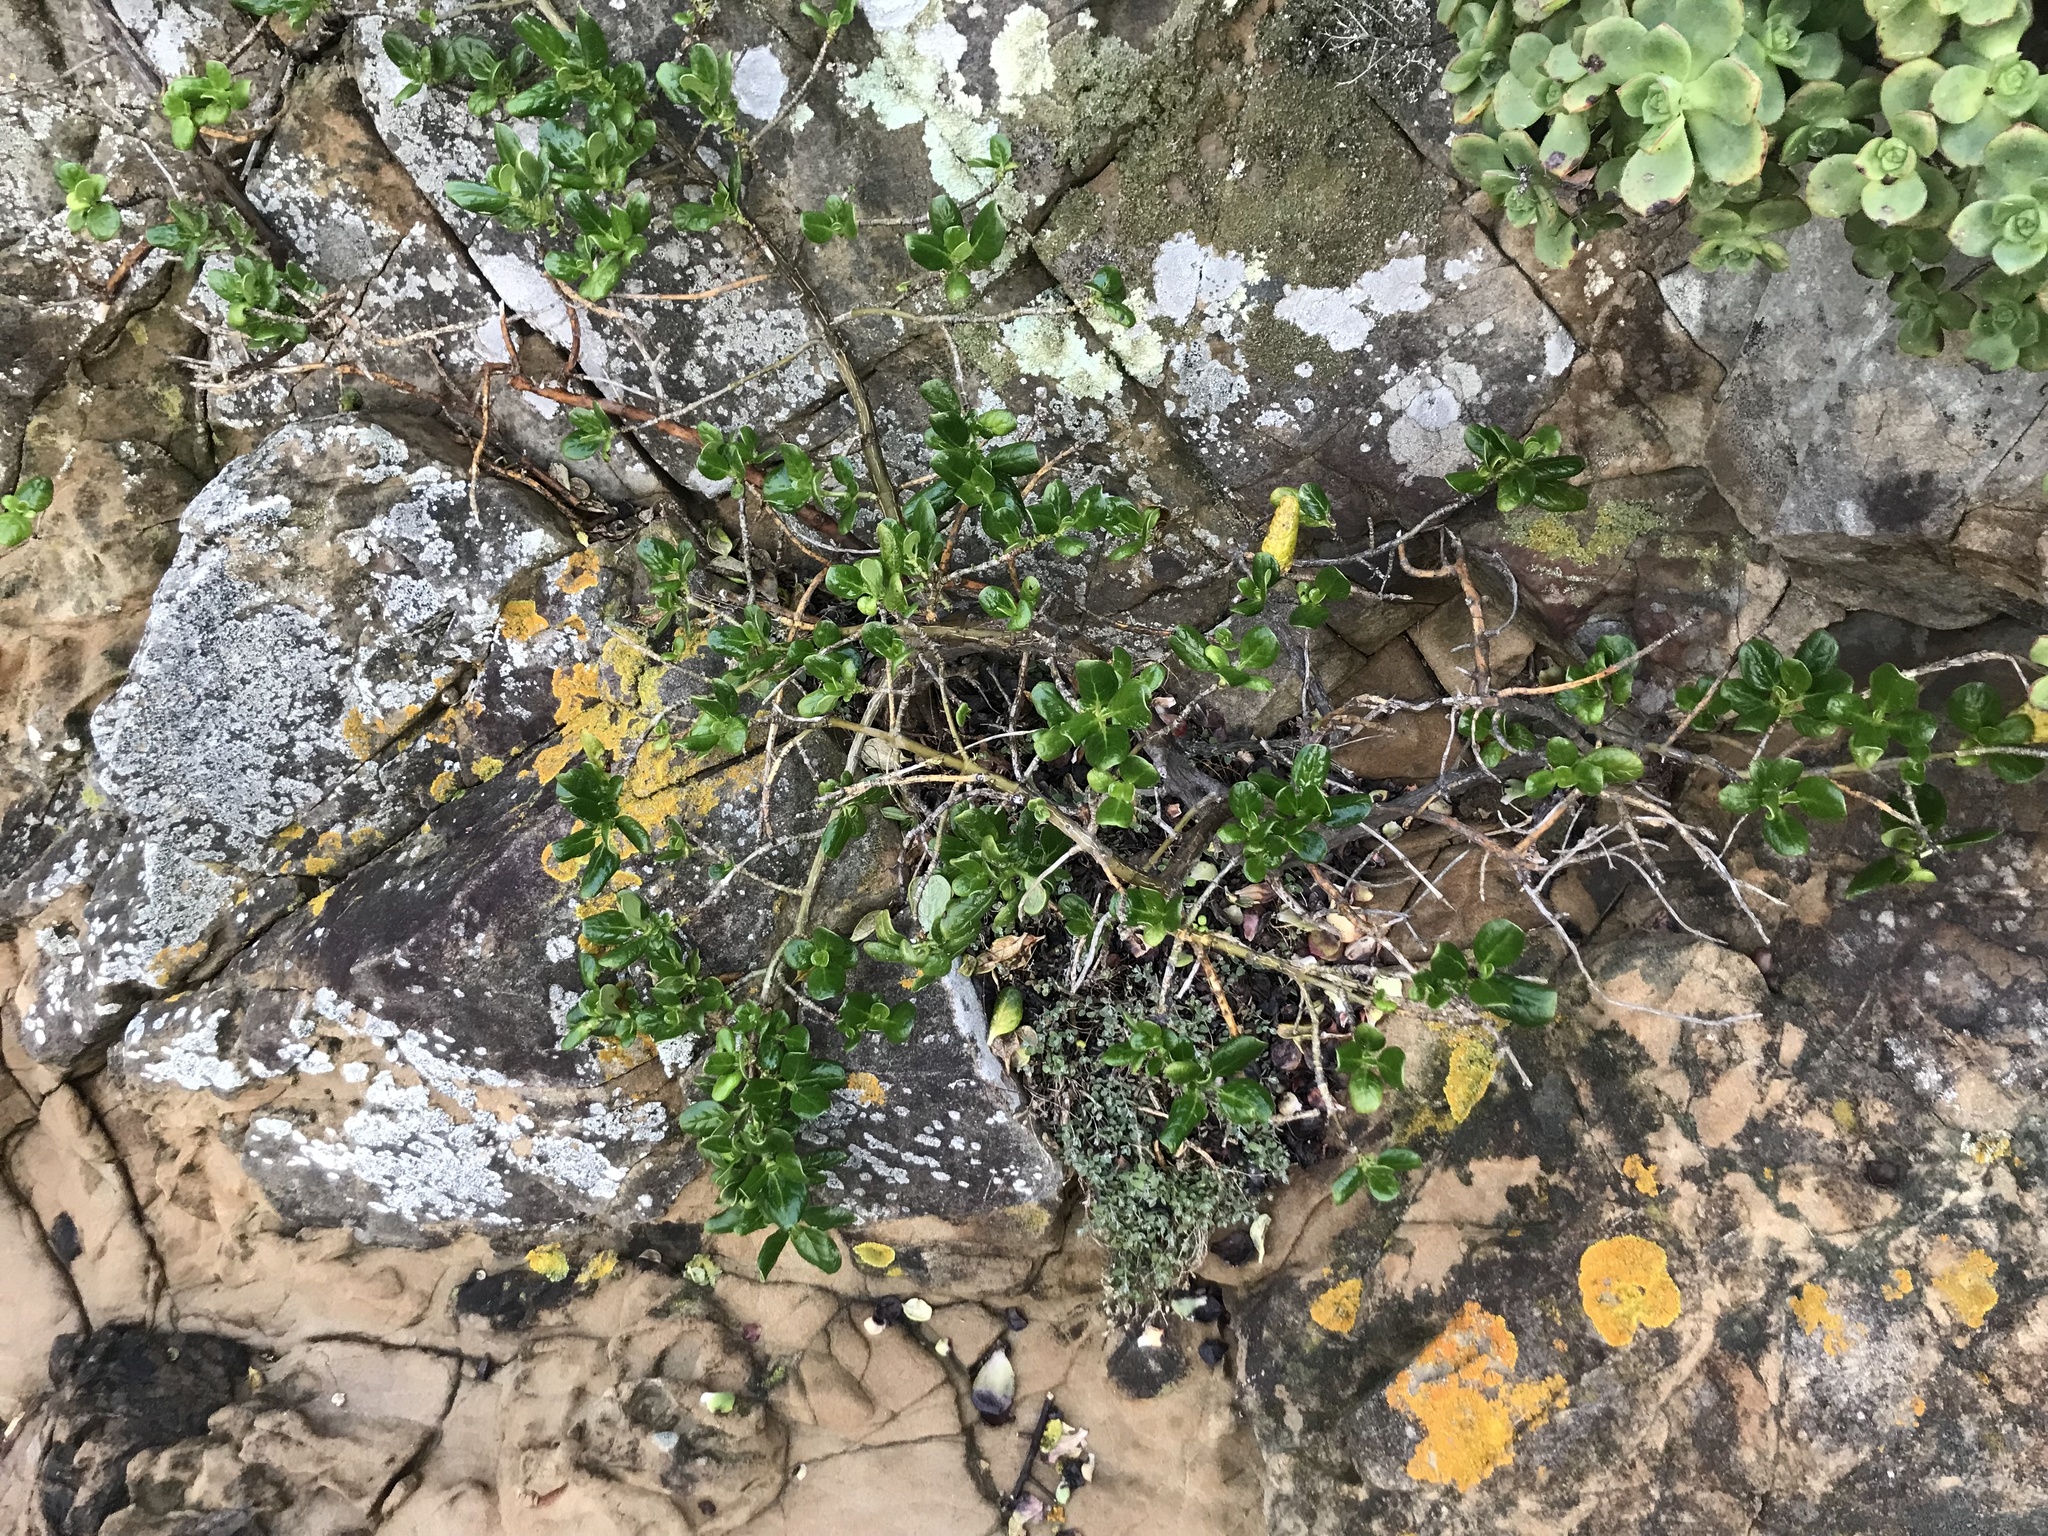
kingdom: Plantae
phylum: Tracheophyta
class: Magnoliopsida
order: Gentianales
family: Rubiaceae
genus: Coprosma
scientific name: Coprosma repens
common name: Tree bedstraw
